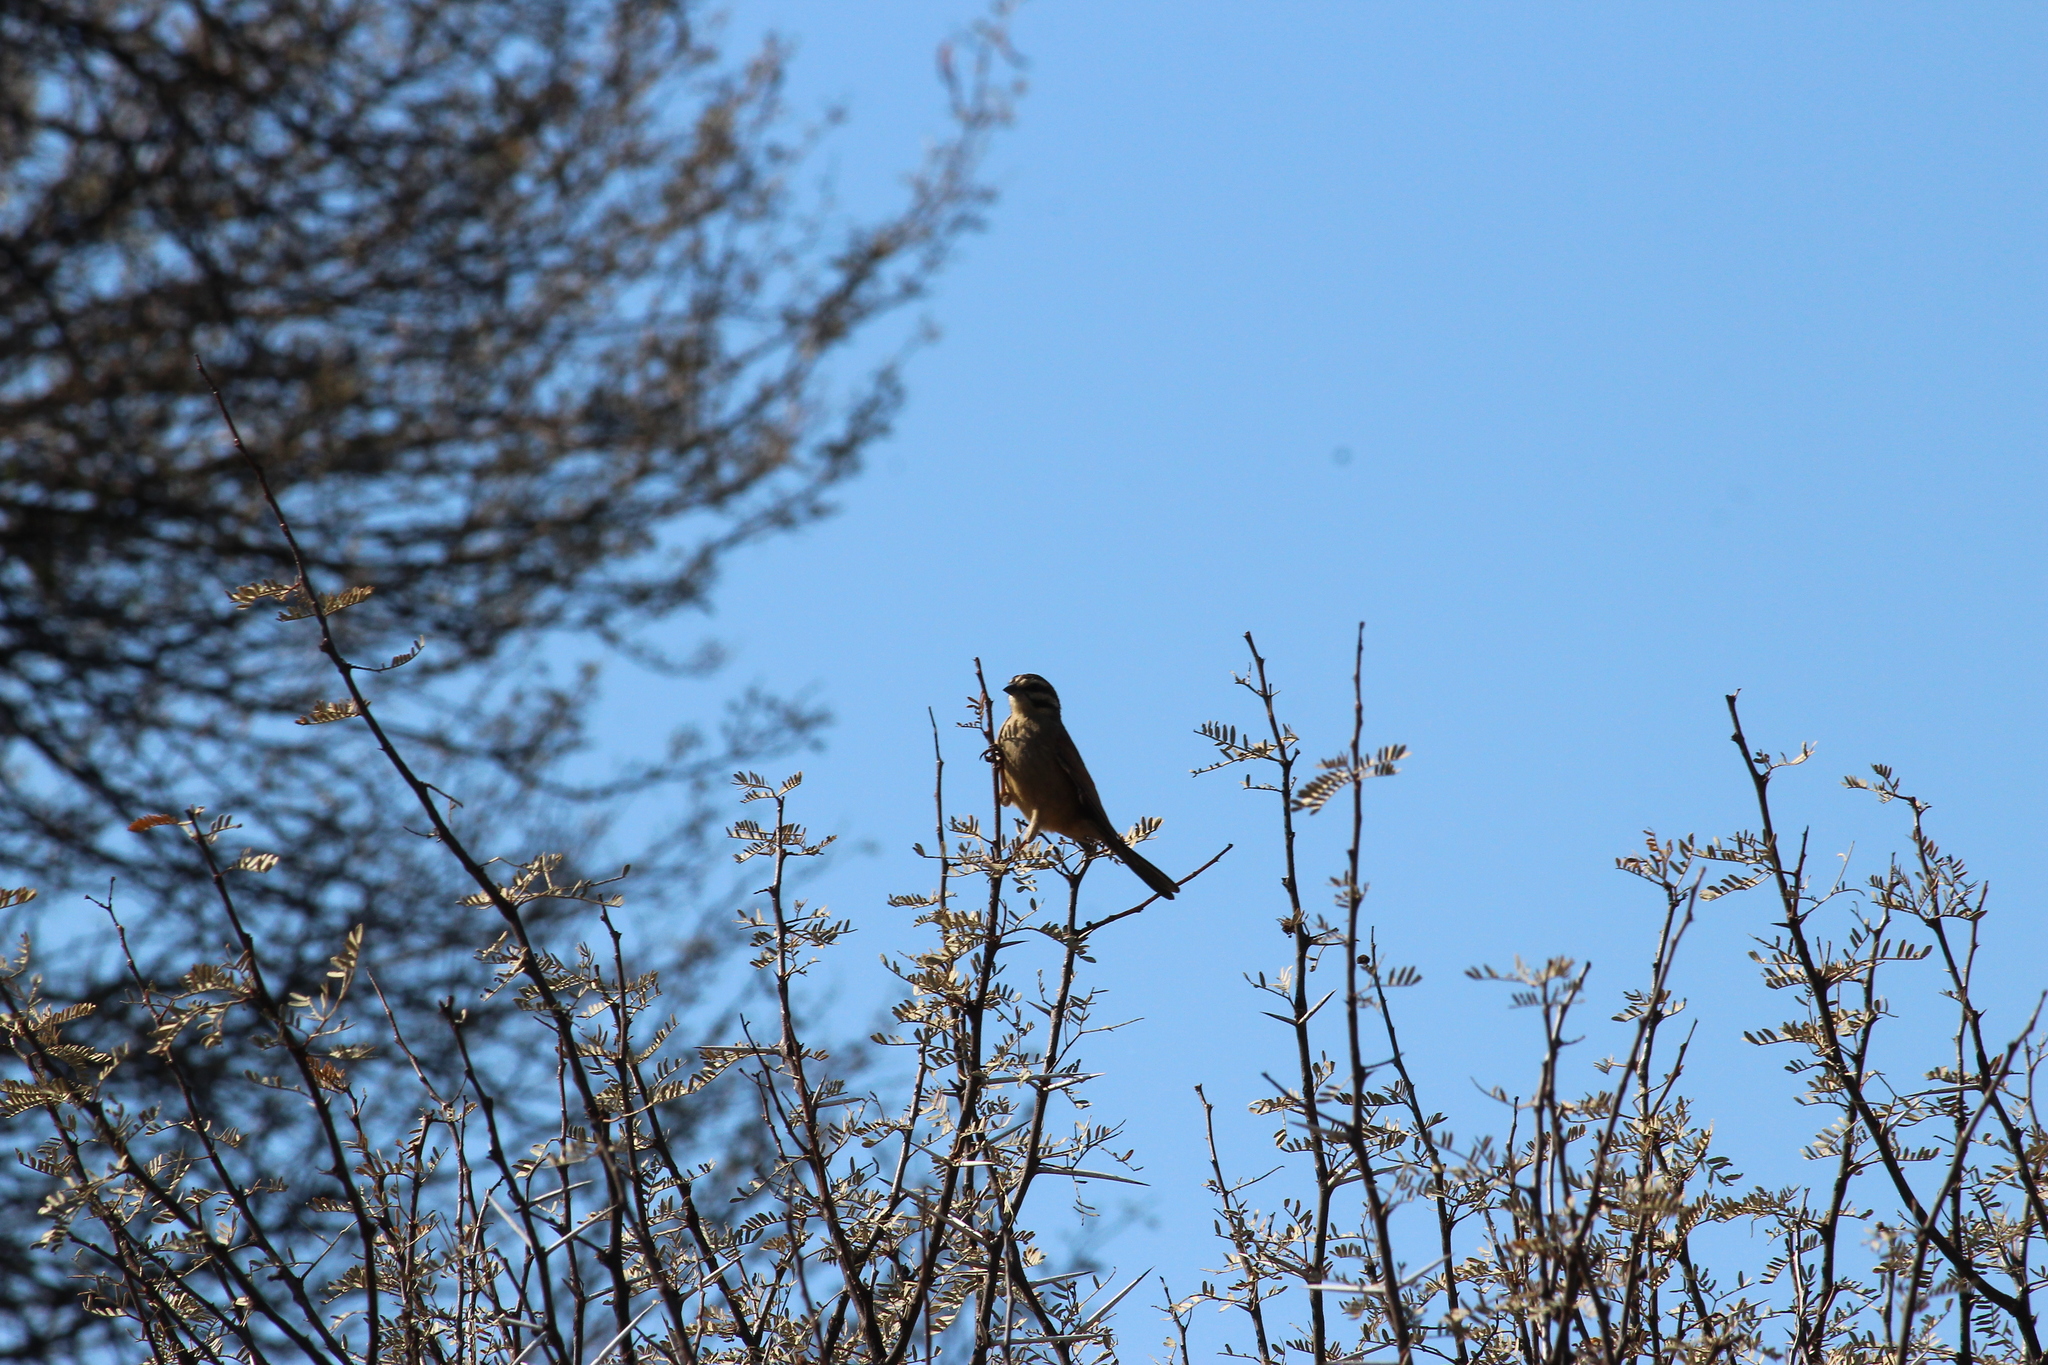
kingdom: Animalia
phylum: Chordata
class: Aves
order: Passeriformes
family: Emberizidae
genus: Emberiza
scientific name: Emberiza capensis
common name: Cape bunting
